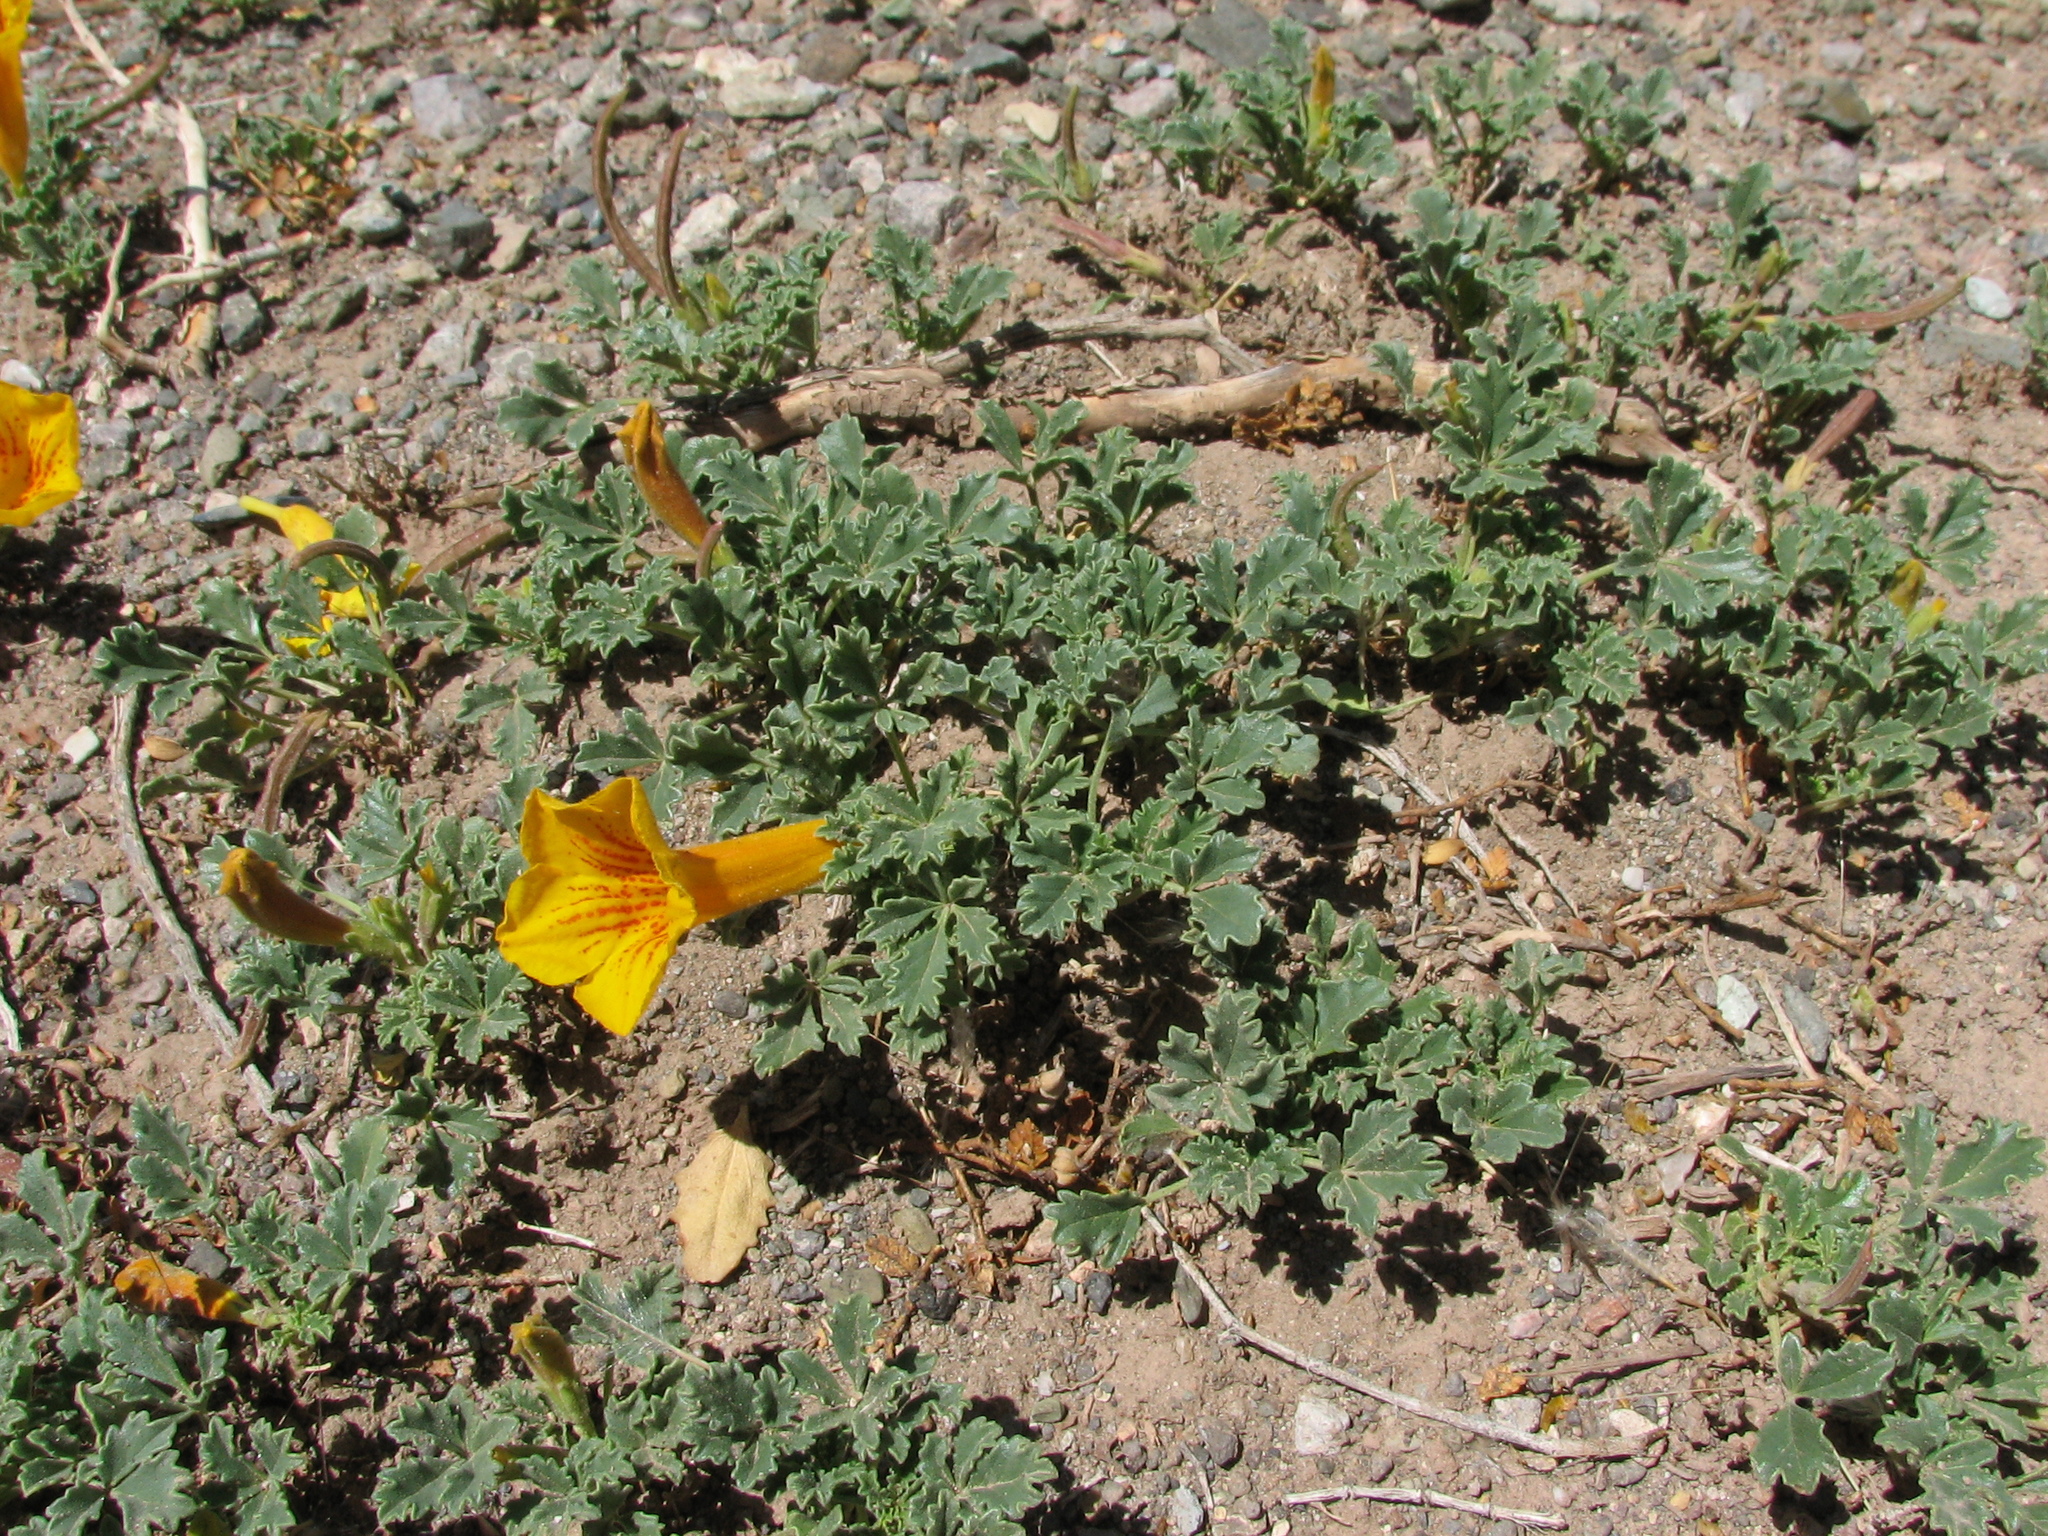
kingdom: Plantae
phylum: Tracheophyta
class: Magnoliopsida
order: Lamiales
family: Bignoniaceae
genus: Argylia
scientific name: Argylia uspallatensis
